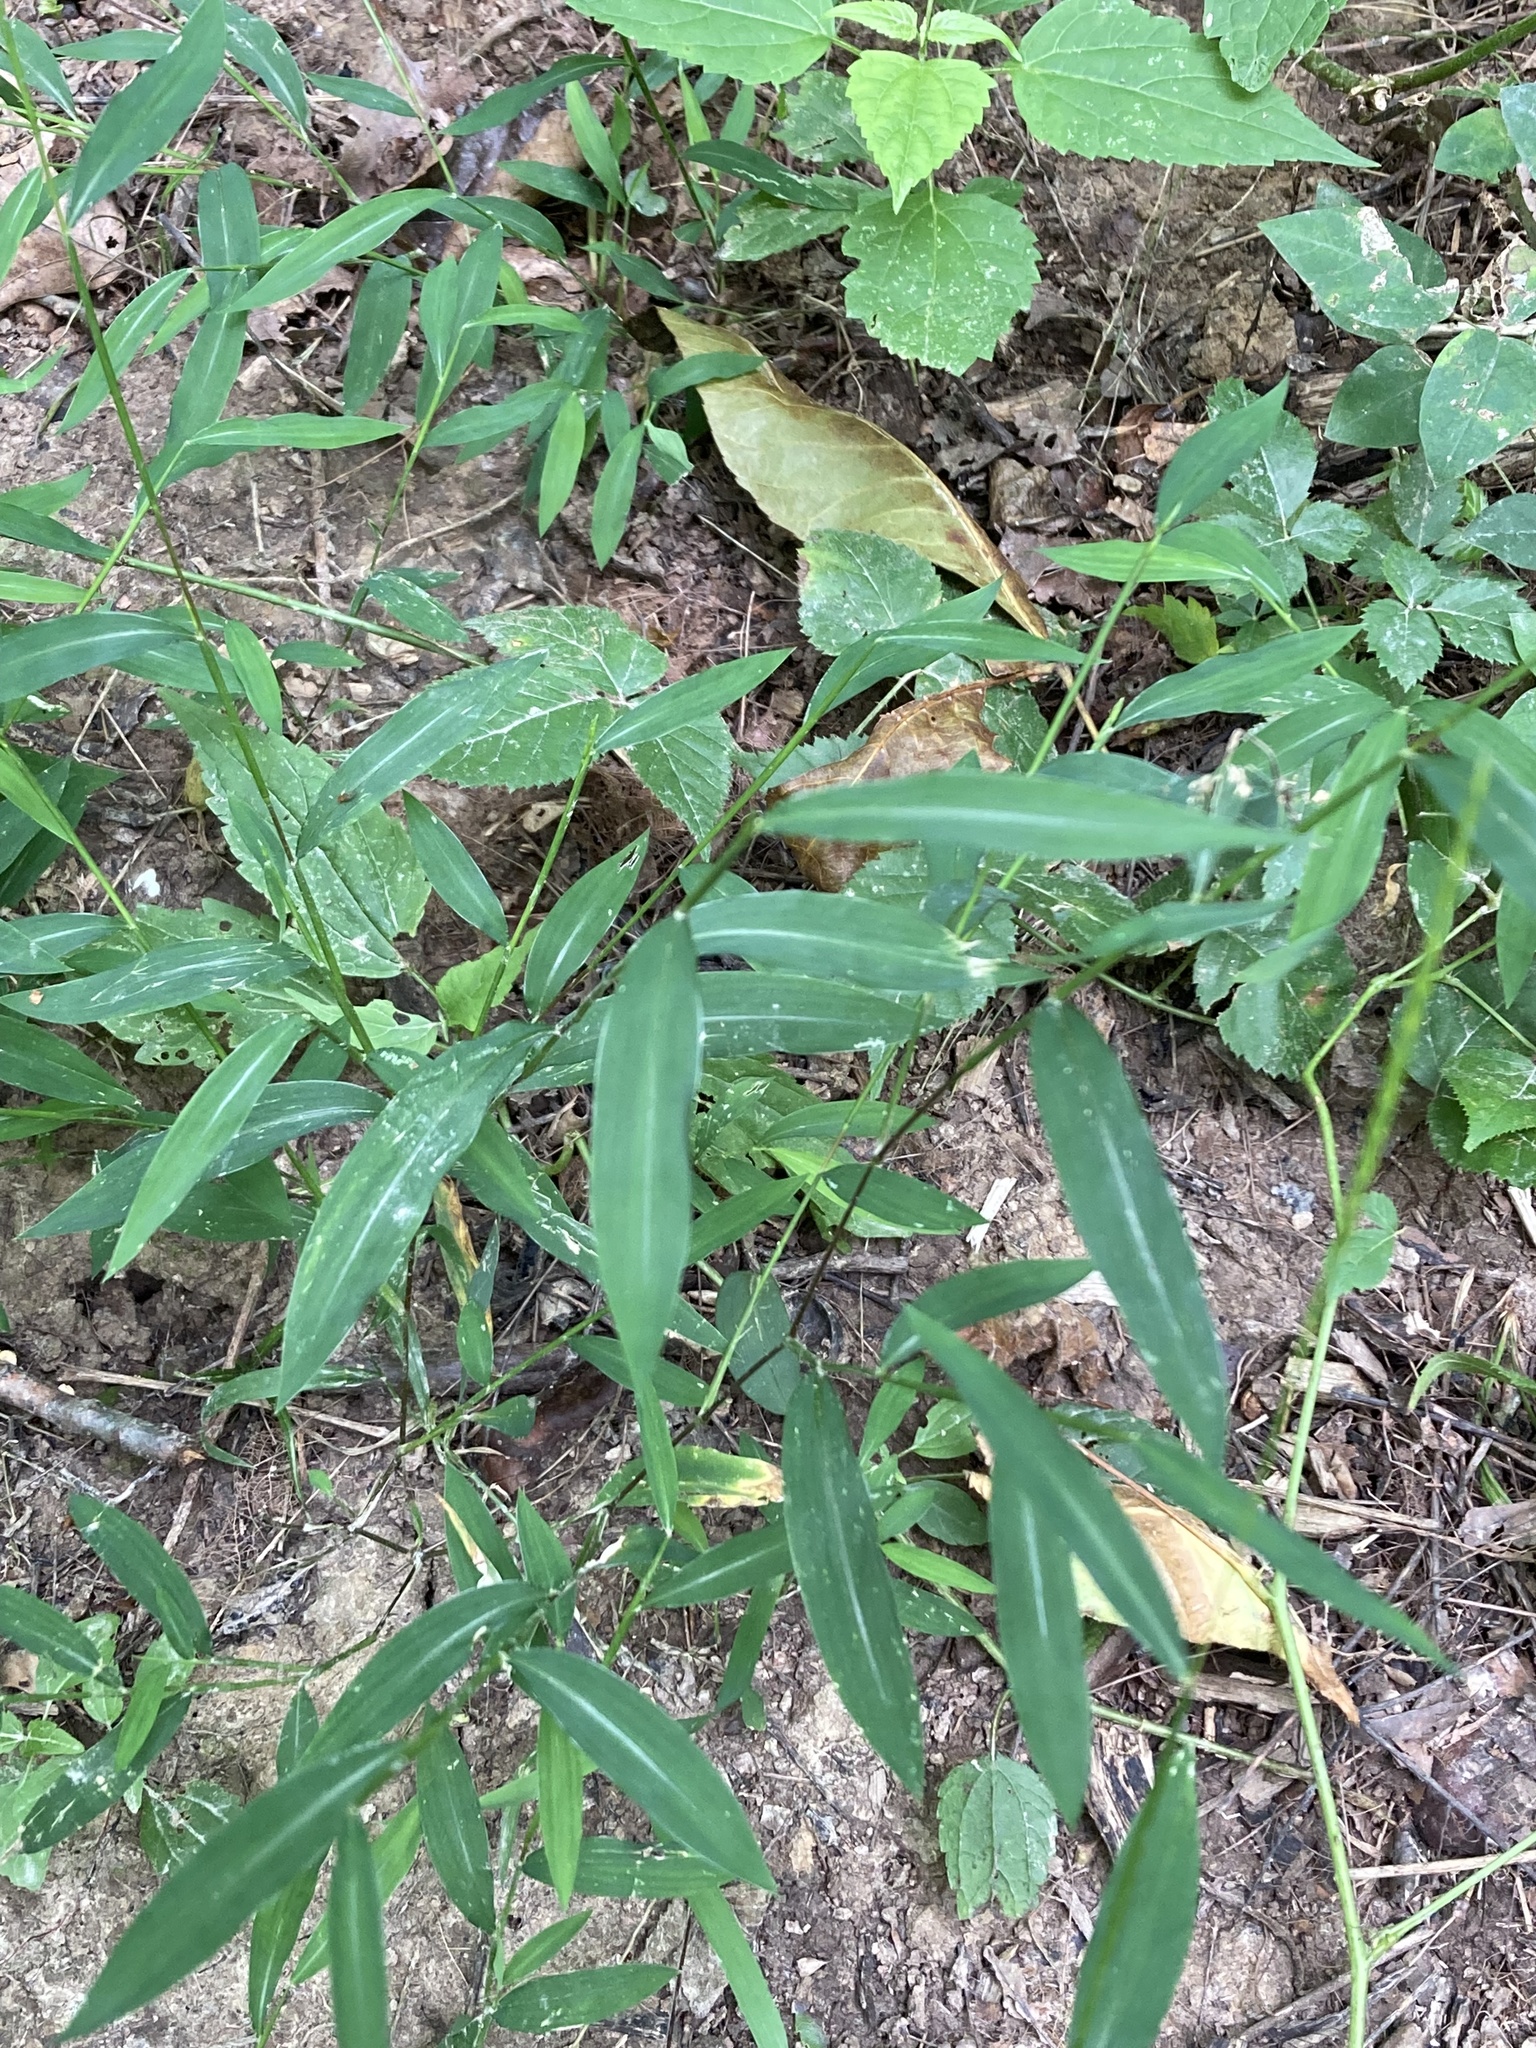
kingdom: Plantae
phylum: Tracheophyta
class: Liliopsida
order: Poales
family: Poaceae
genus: Microstegium
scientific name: Microstegium vimineum
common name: Japanese stiltgrass
